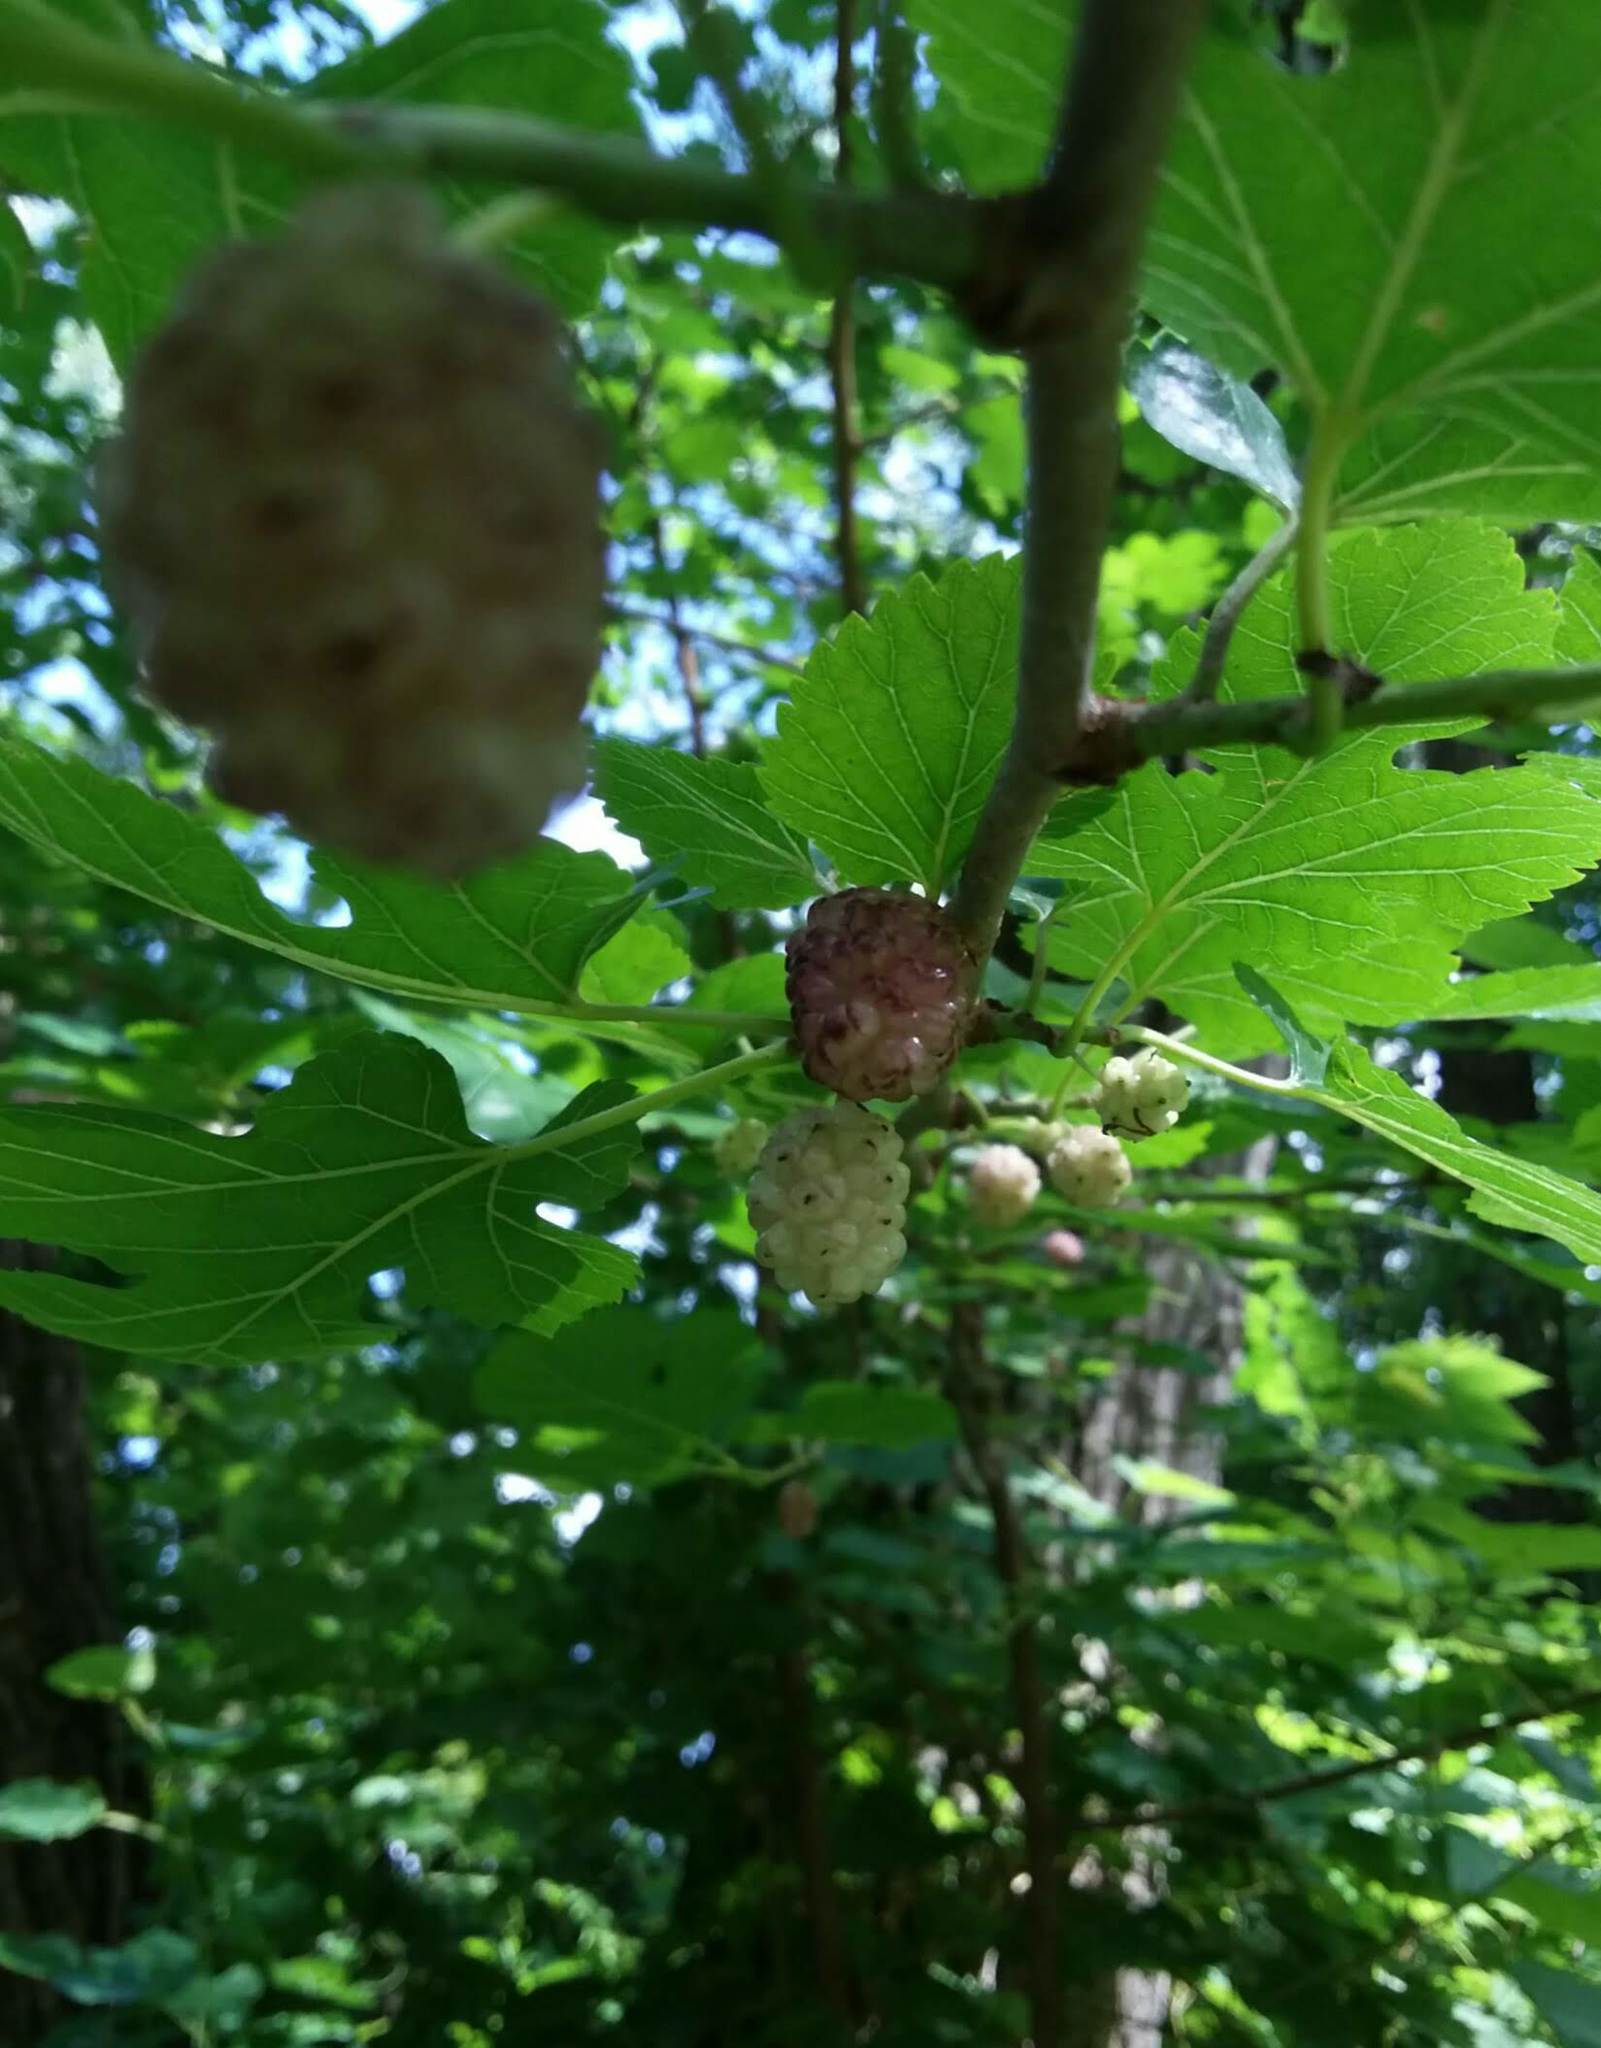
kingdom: Plantae
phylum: Tracheophyta
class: Magnoliopsida
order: Rosales
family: Moraceae
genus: Morus
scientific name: Morus alba
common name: White mulberry
